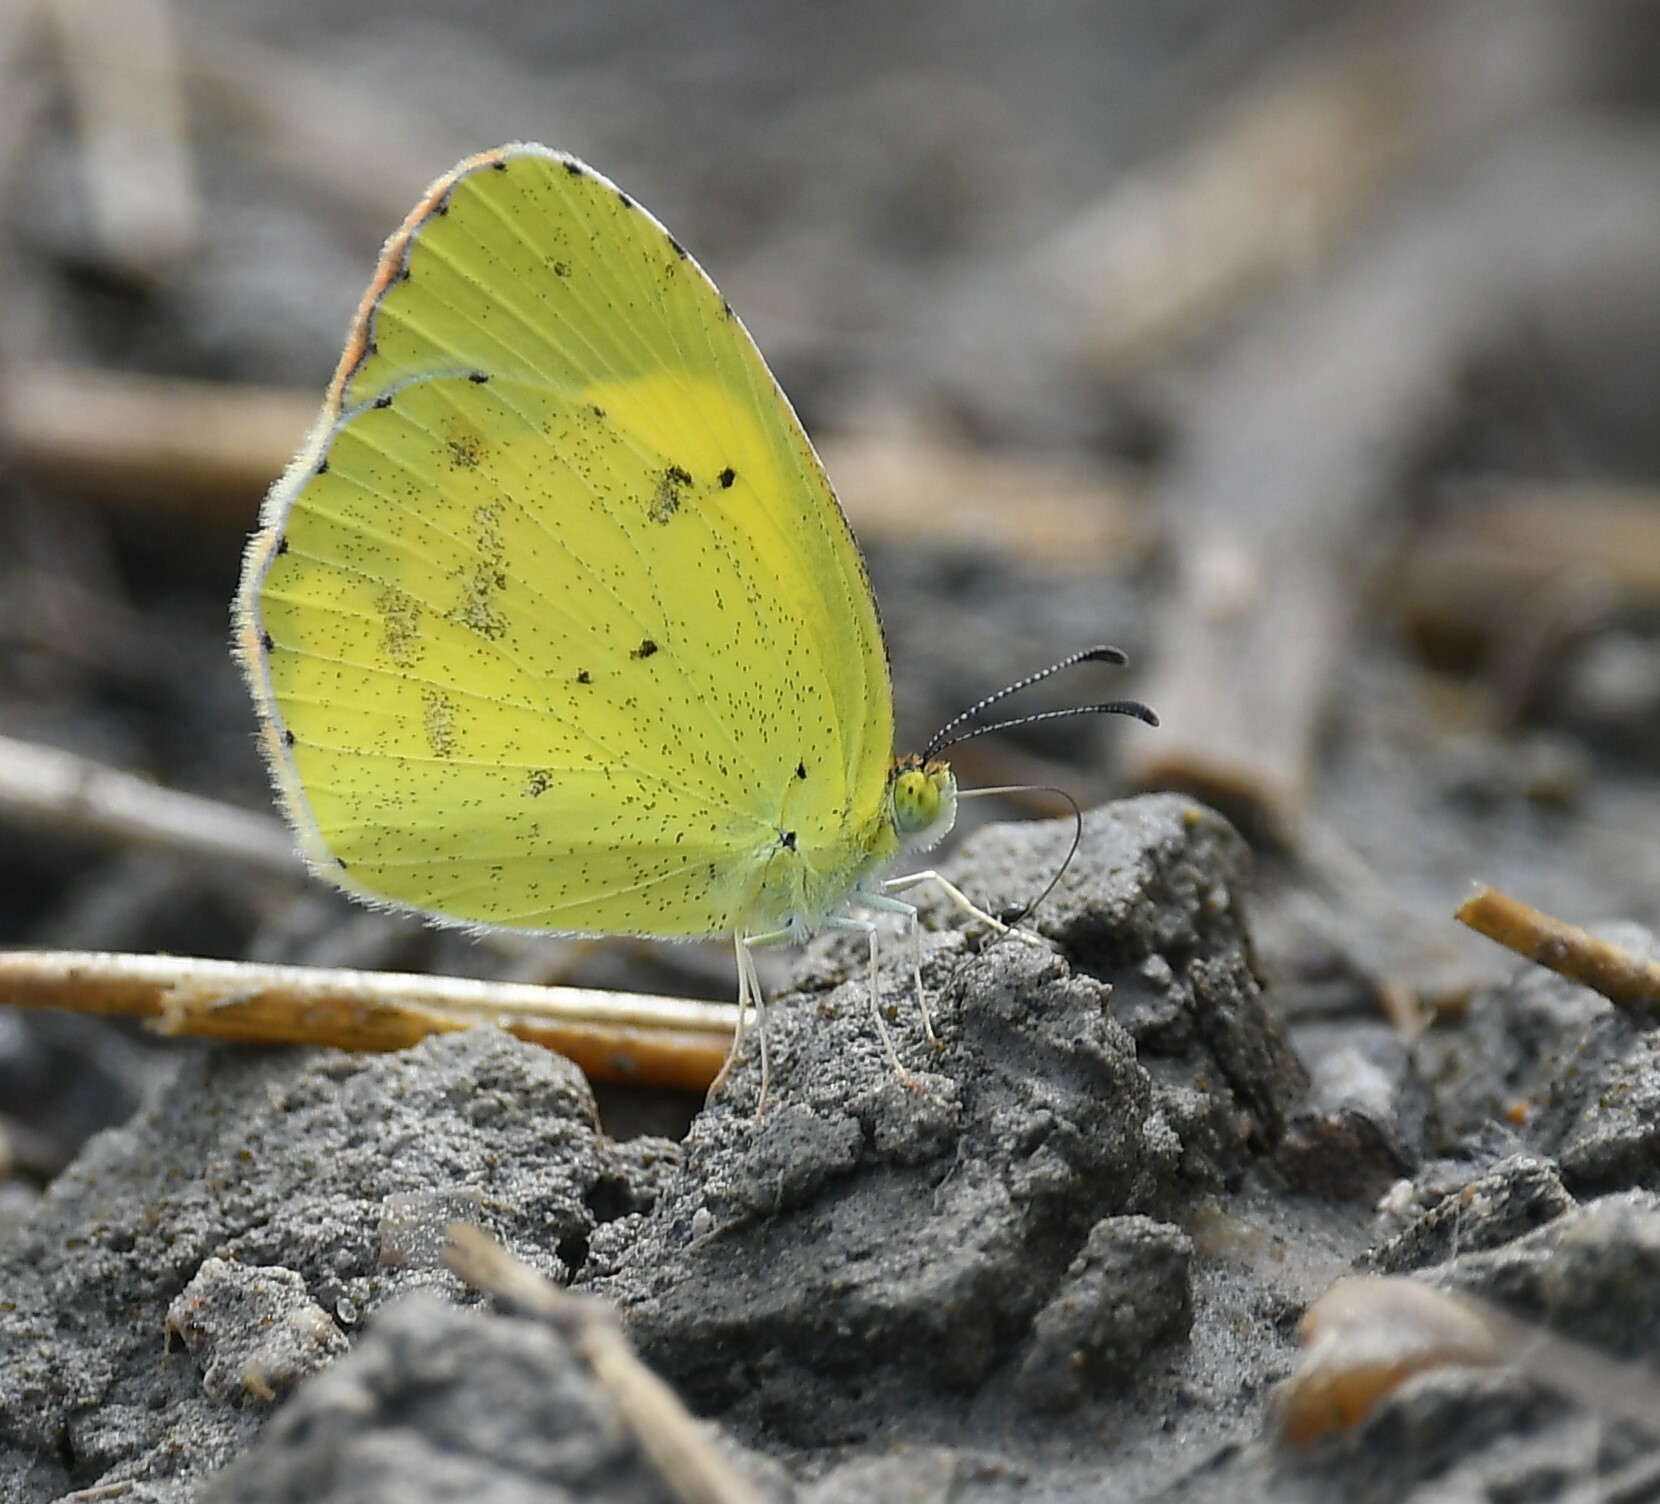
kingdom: Animalia
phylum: Arthropoda
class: Insecta
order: Lepidoptera
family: Pieridae
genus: Pyrisitia
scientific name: Pyrisitia lisa
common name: Little yellow
